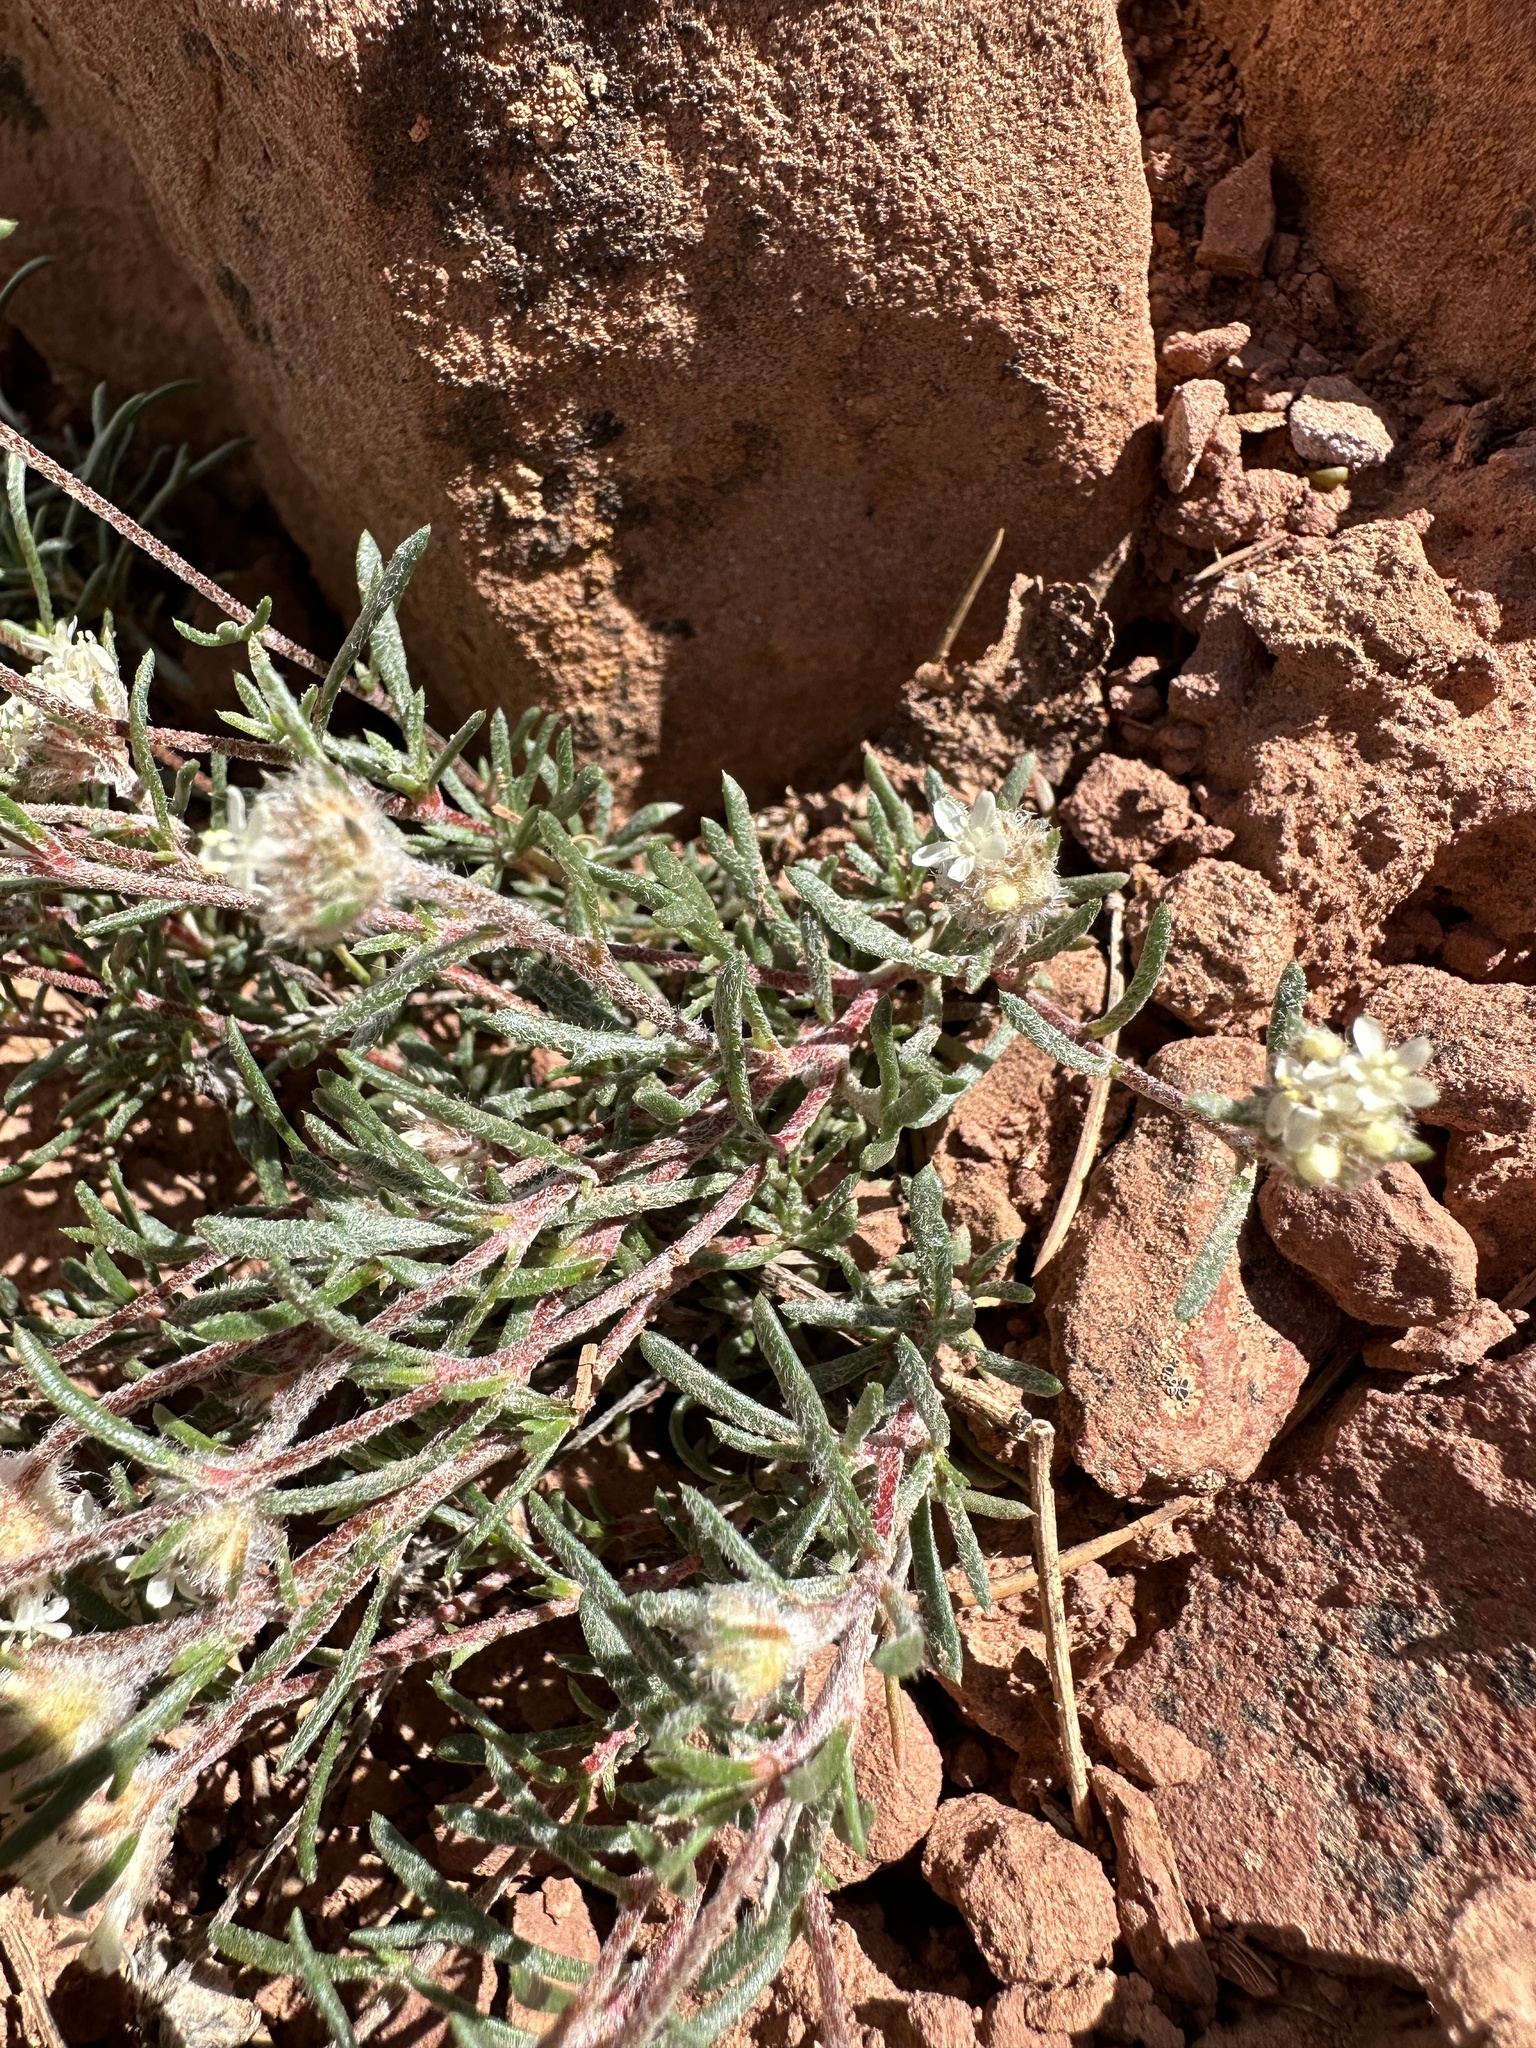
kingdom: Plantae
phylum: Tracheophyta
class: Magnoliopsida
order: Ericales
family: Polemoniaceae
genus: Ipomopsis
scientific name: Ipomopsis congesta
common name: Ball-head gilia
